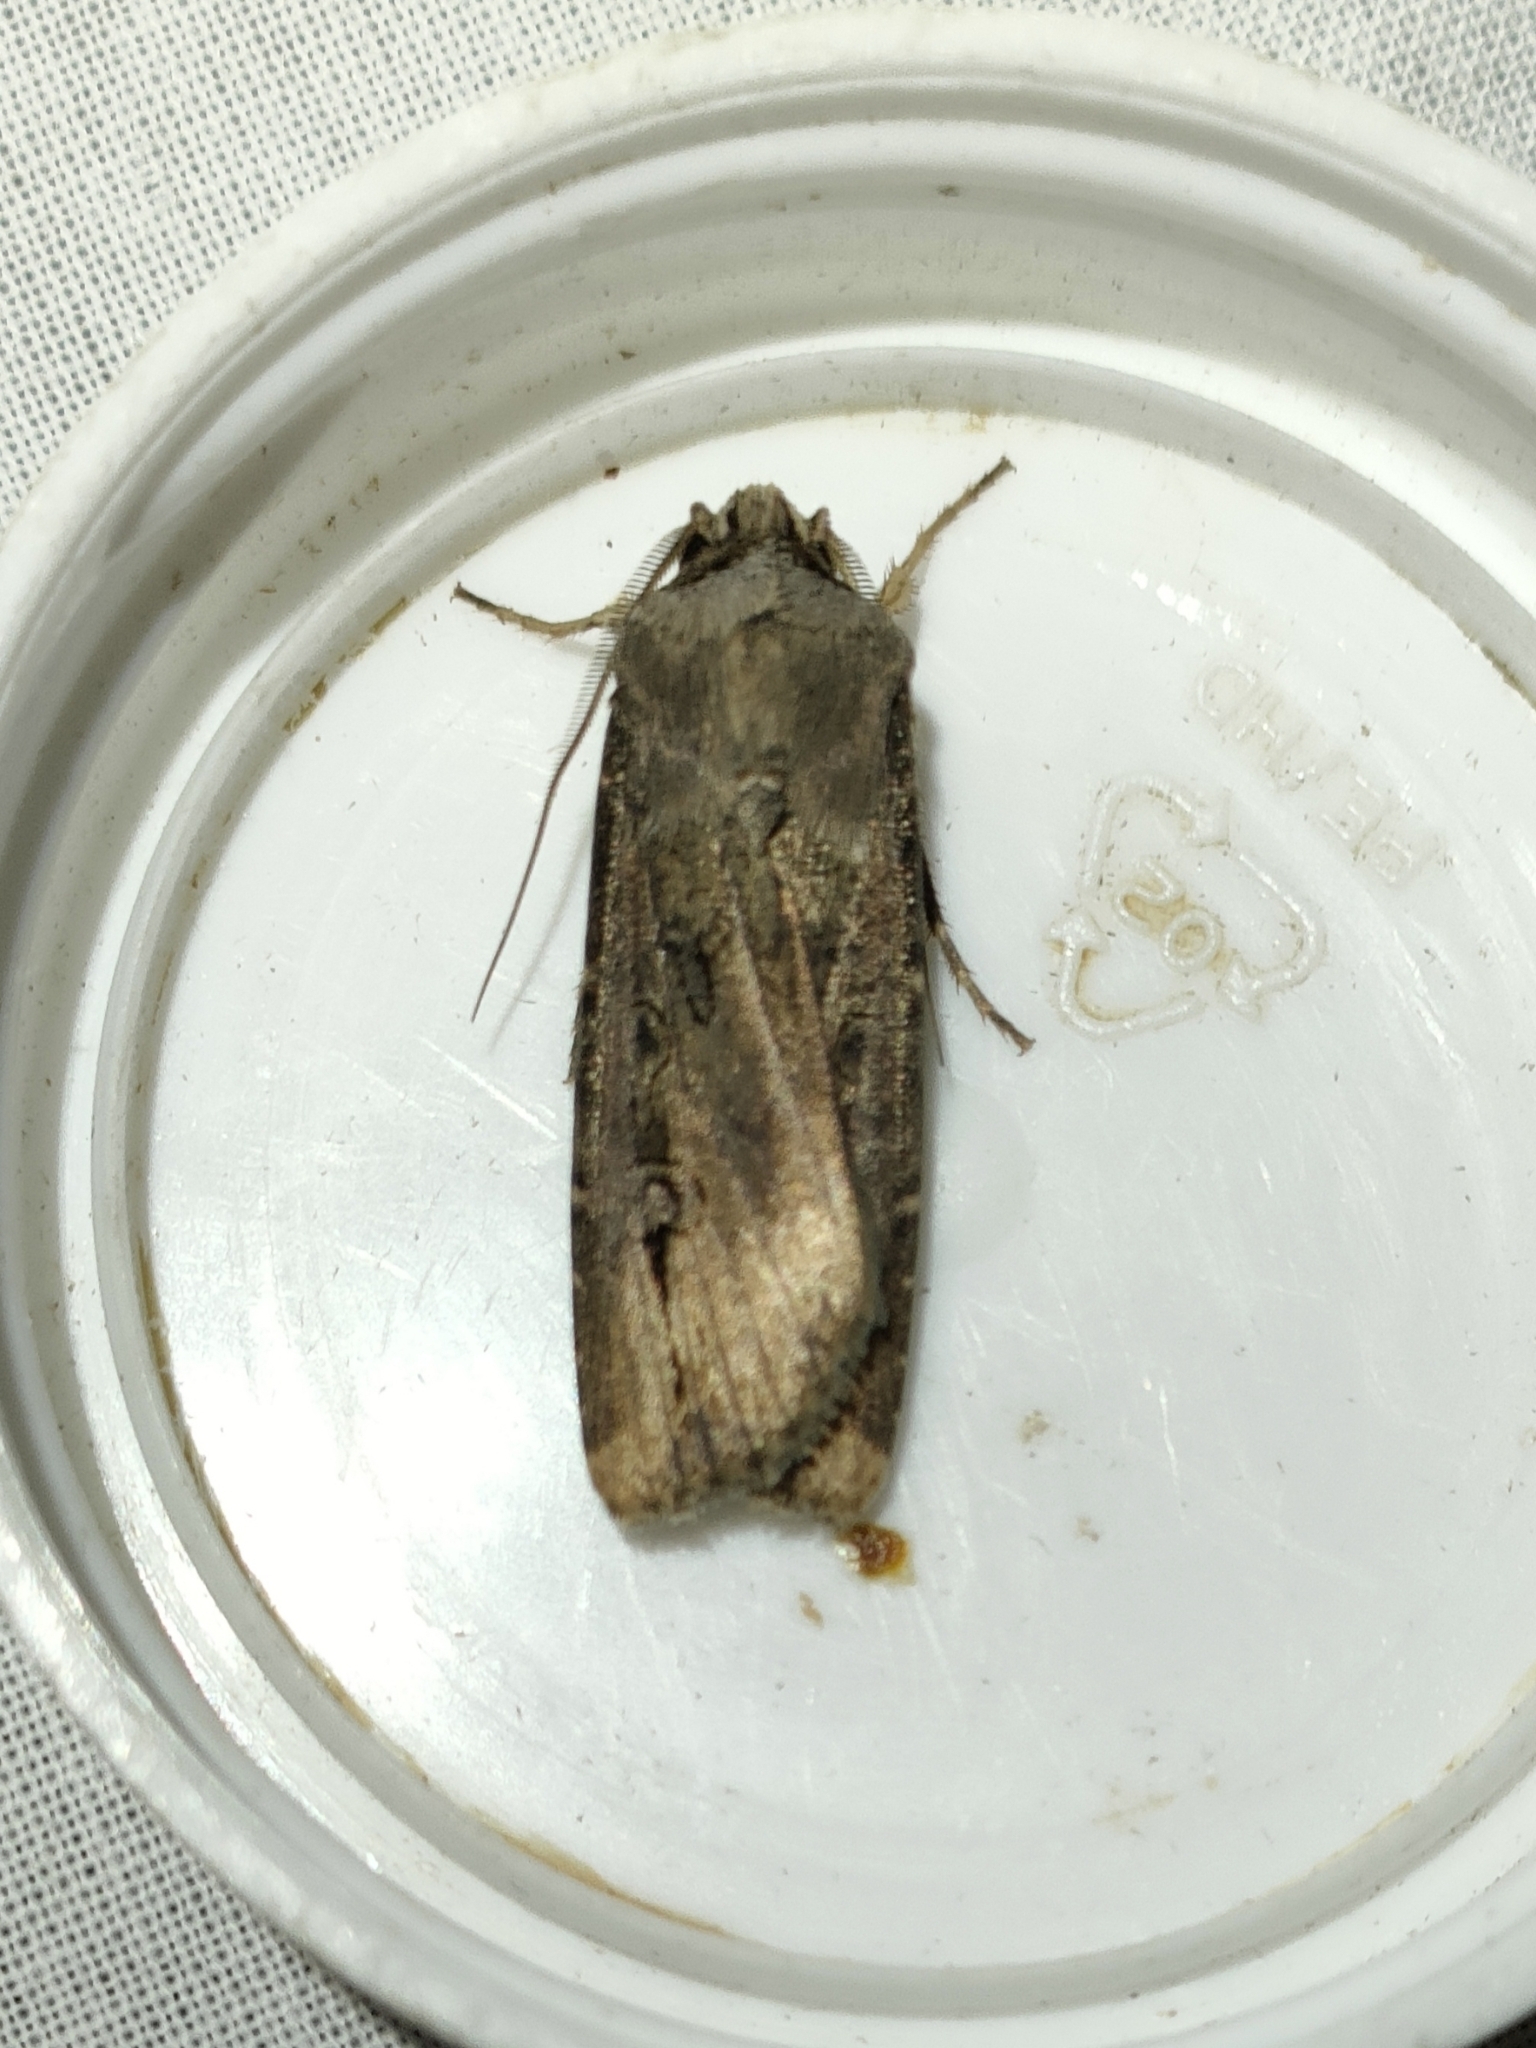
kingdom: Animalia
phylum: Arthropoda
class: Insecta
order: Lepidoptera
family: Noctuidae
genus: Agrotis
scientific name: Agrotis ipsilon
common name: Dark sword-grass
